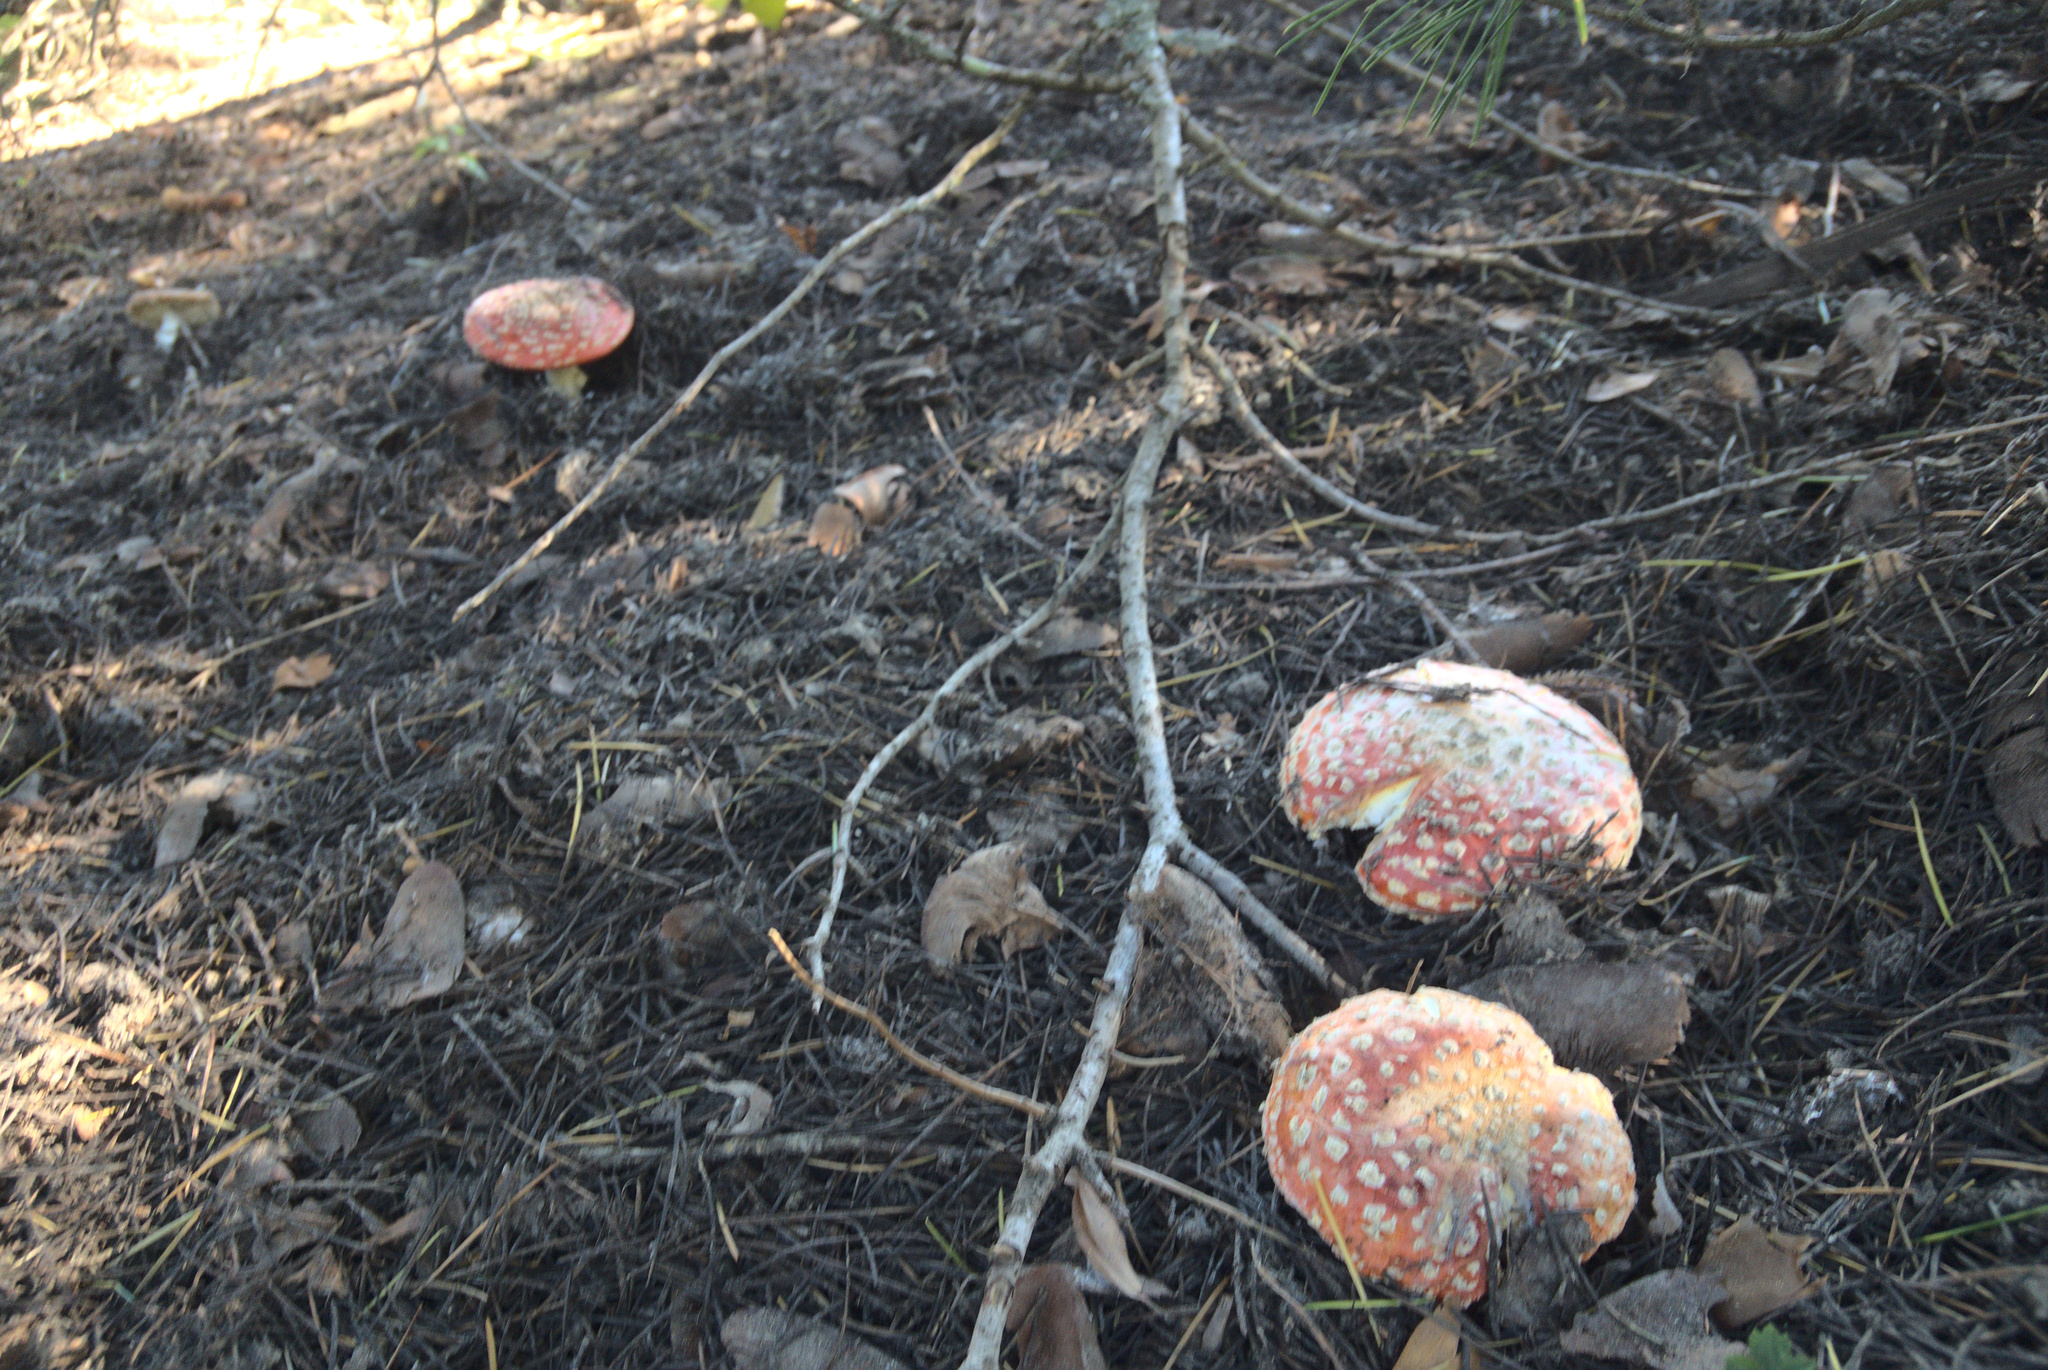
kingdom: Fungi
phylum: Basidiomycota
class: Agaricomycetes
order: Agaricales
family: Amanitaceae
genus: Amanita
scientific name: Amanita muscaria
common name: Fly agaric
